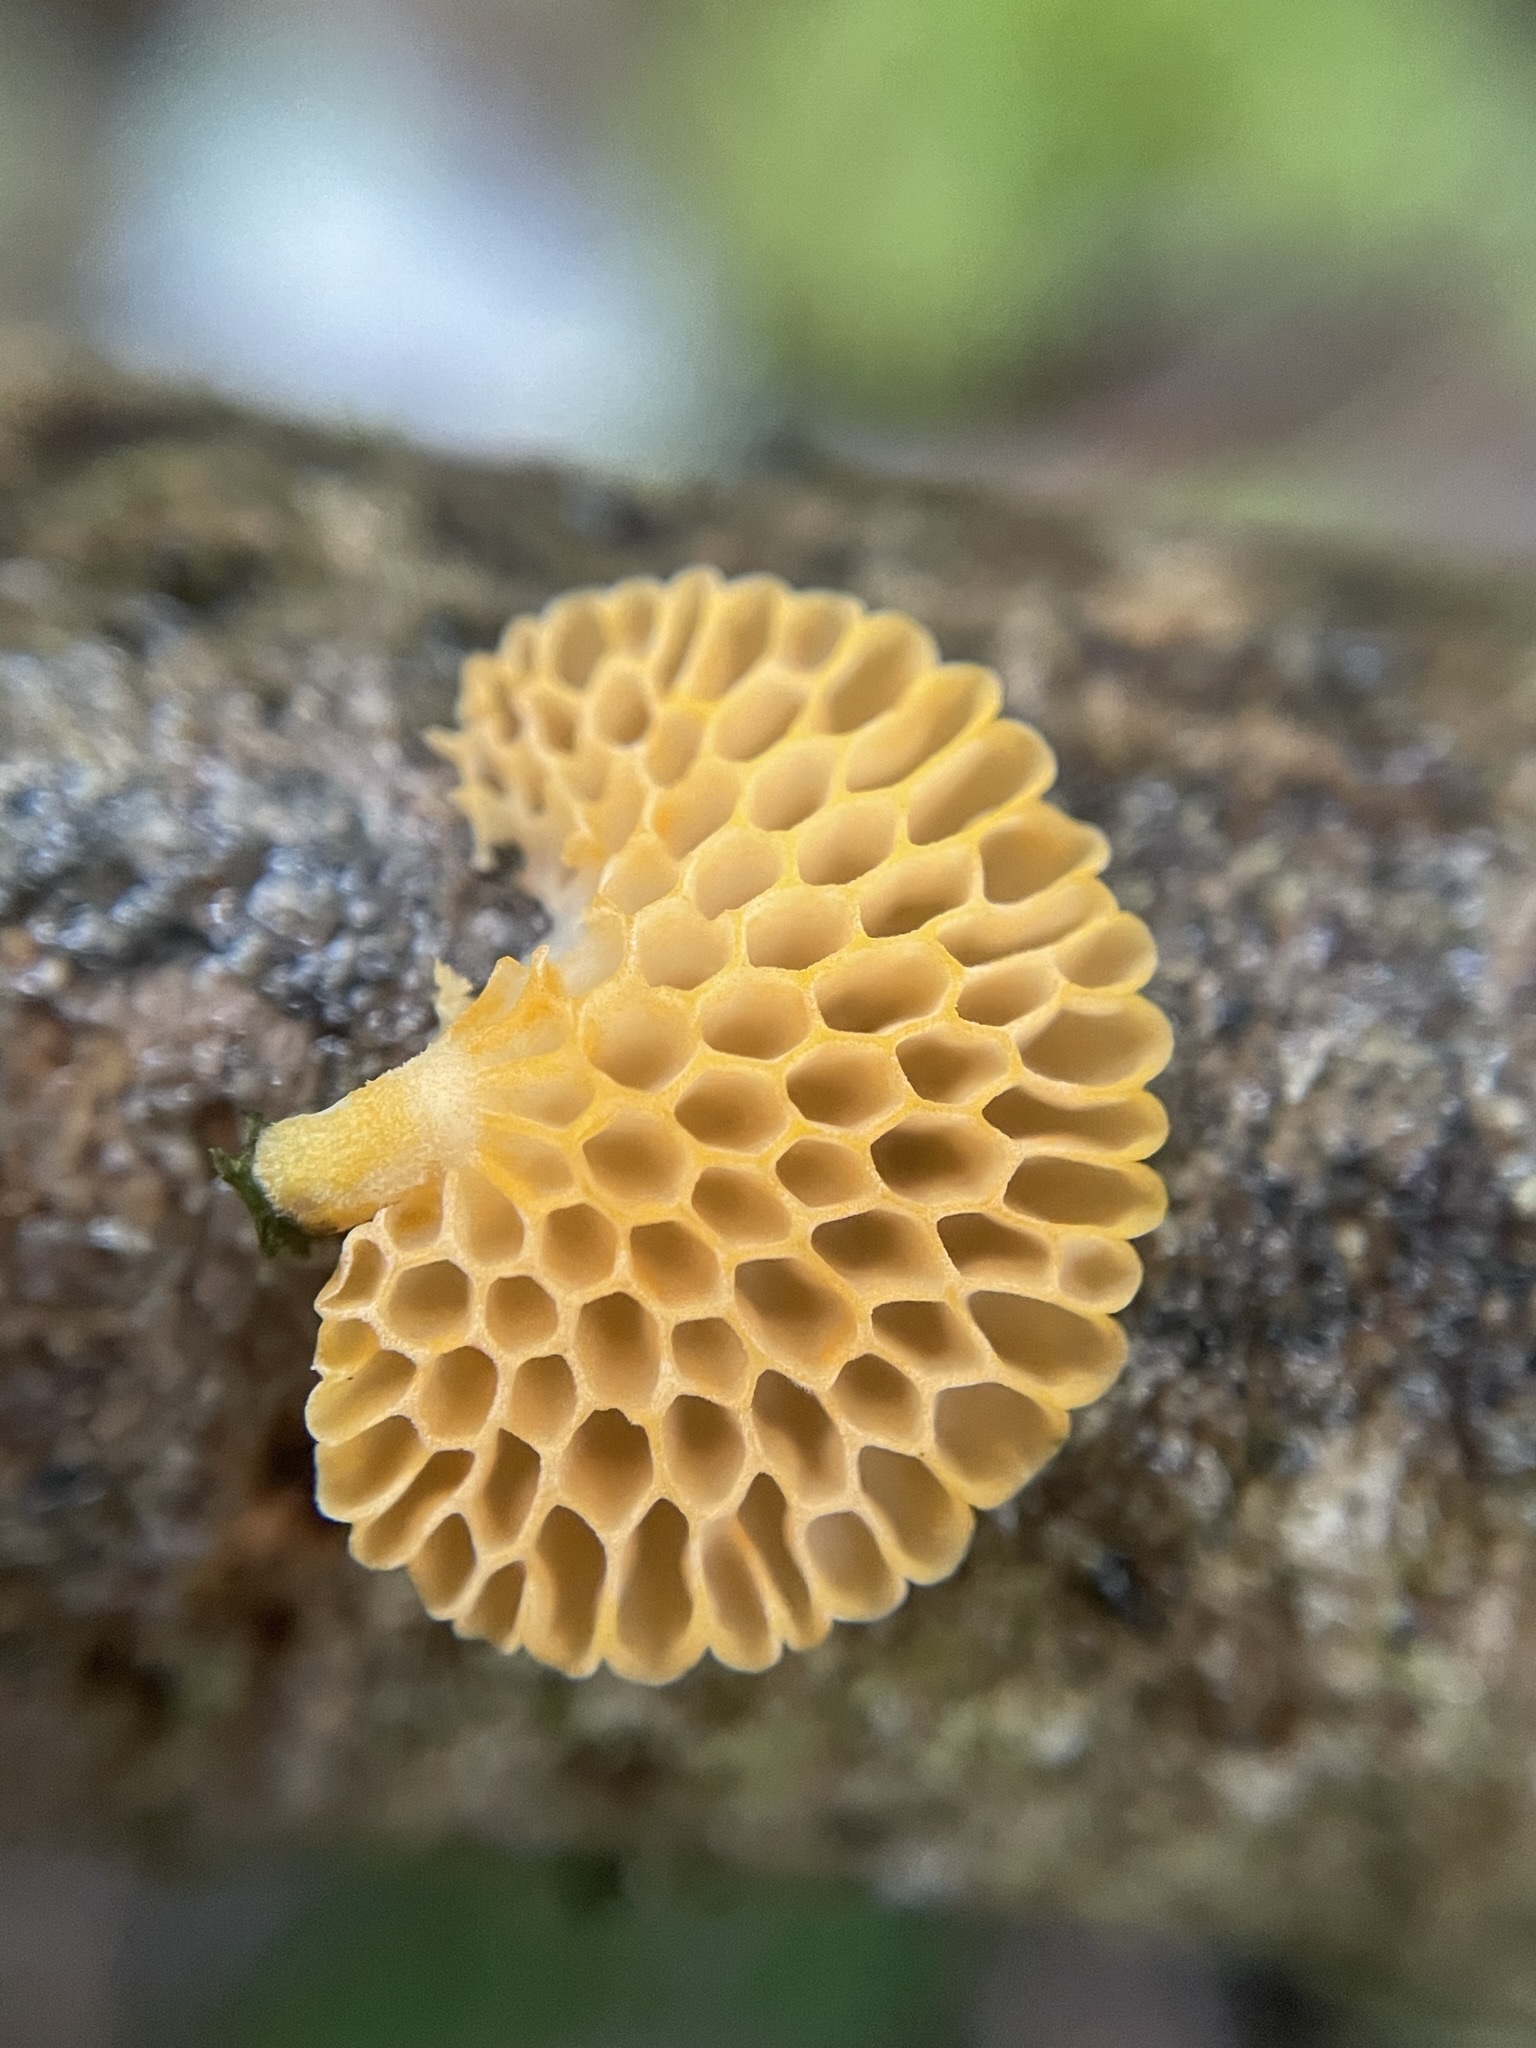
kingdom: Fungi
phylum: Basidiomycota
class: Agaricomycetes
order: Agaricales
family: Mycenaceae
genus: Favolaschia
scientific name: Favolaschia claudopus
